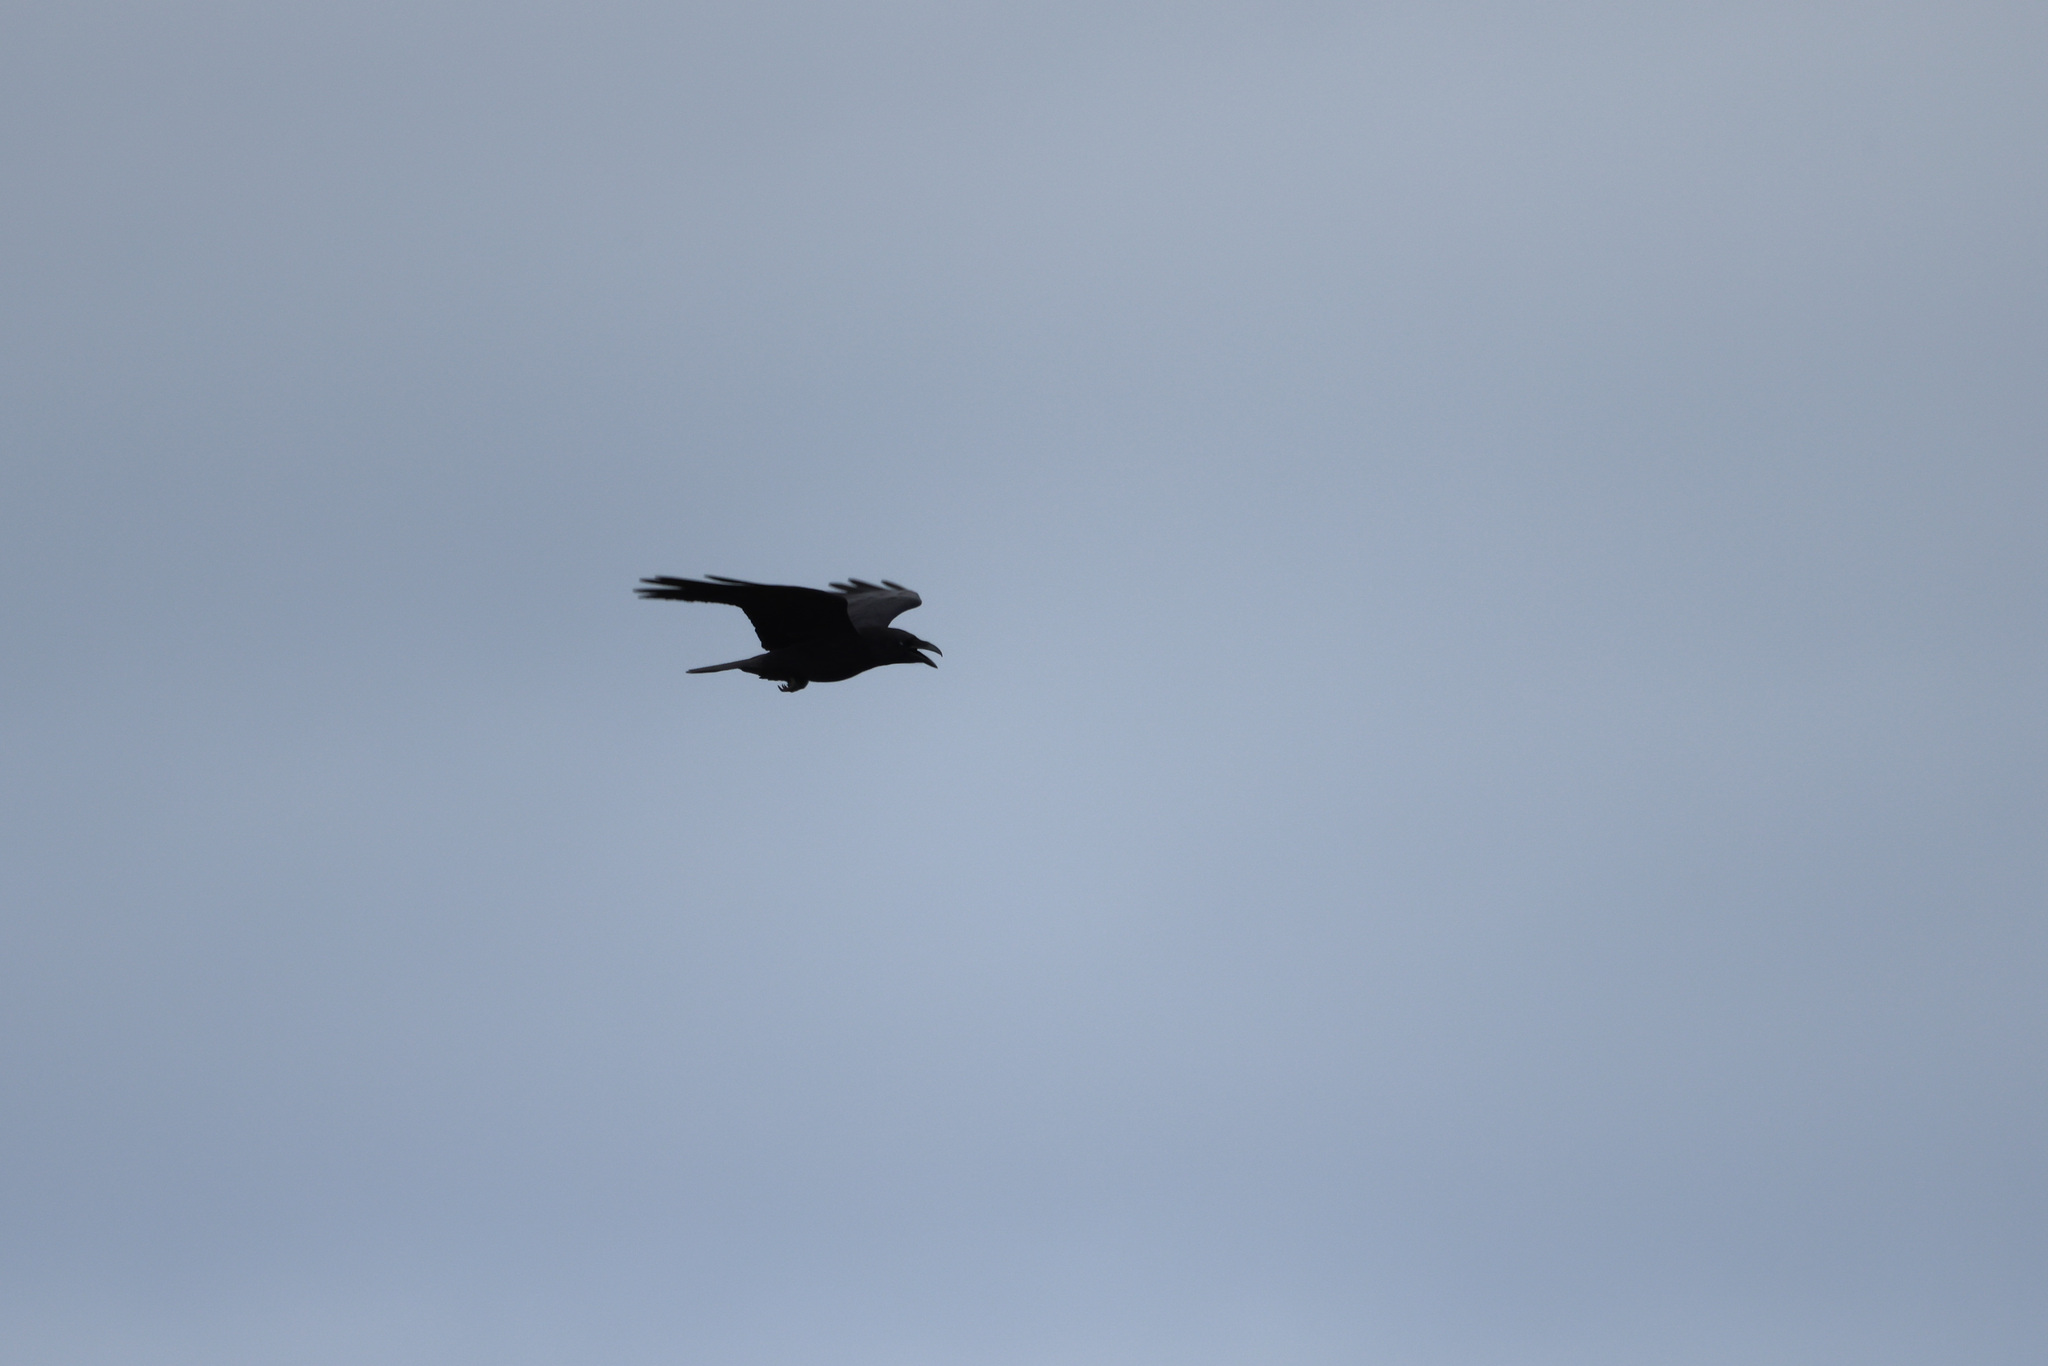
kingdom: Animalia
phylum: Chordata
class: Aves
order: Passeriformes
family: Corvidae
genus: Corvus
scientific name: Corvus corax
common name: Common raven
